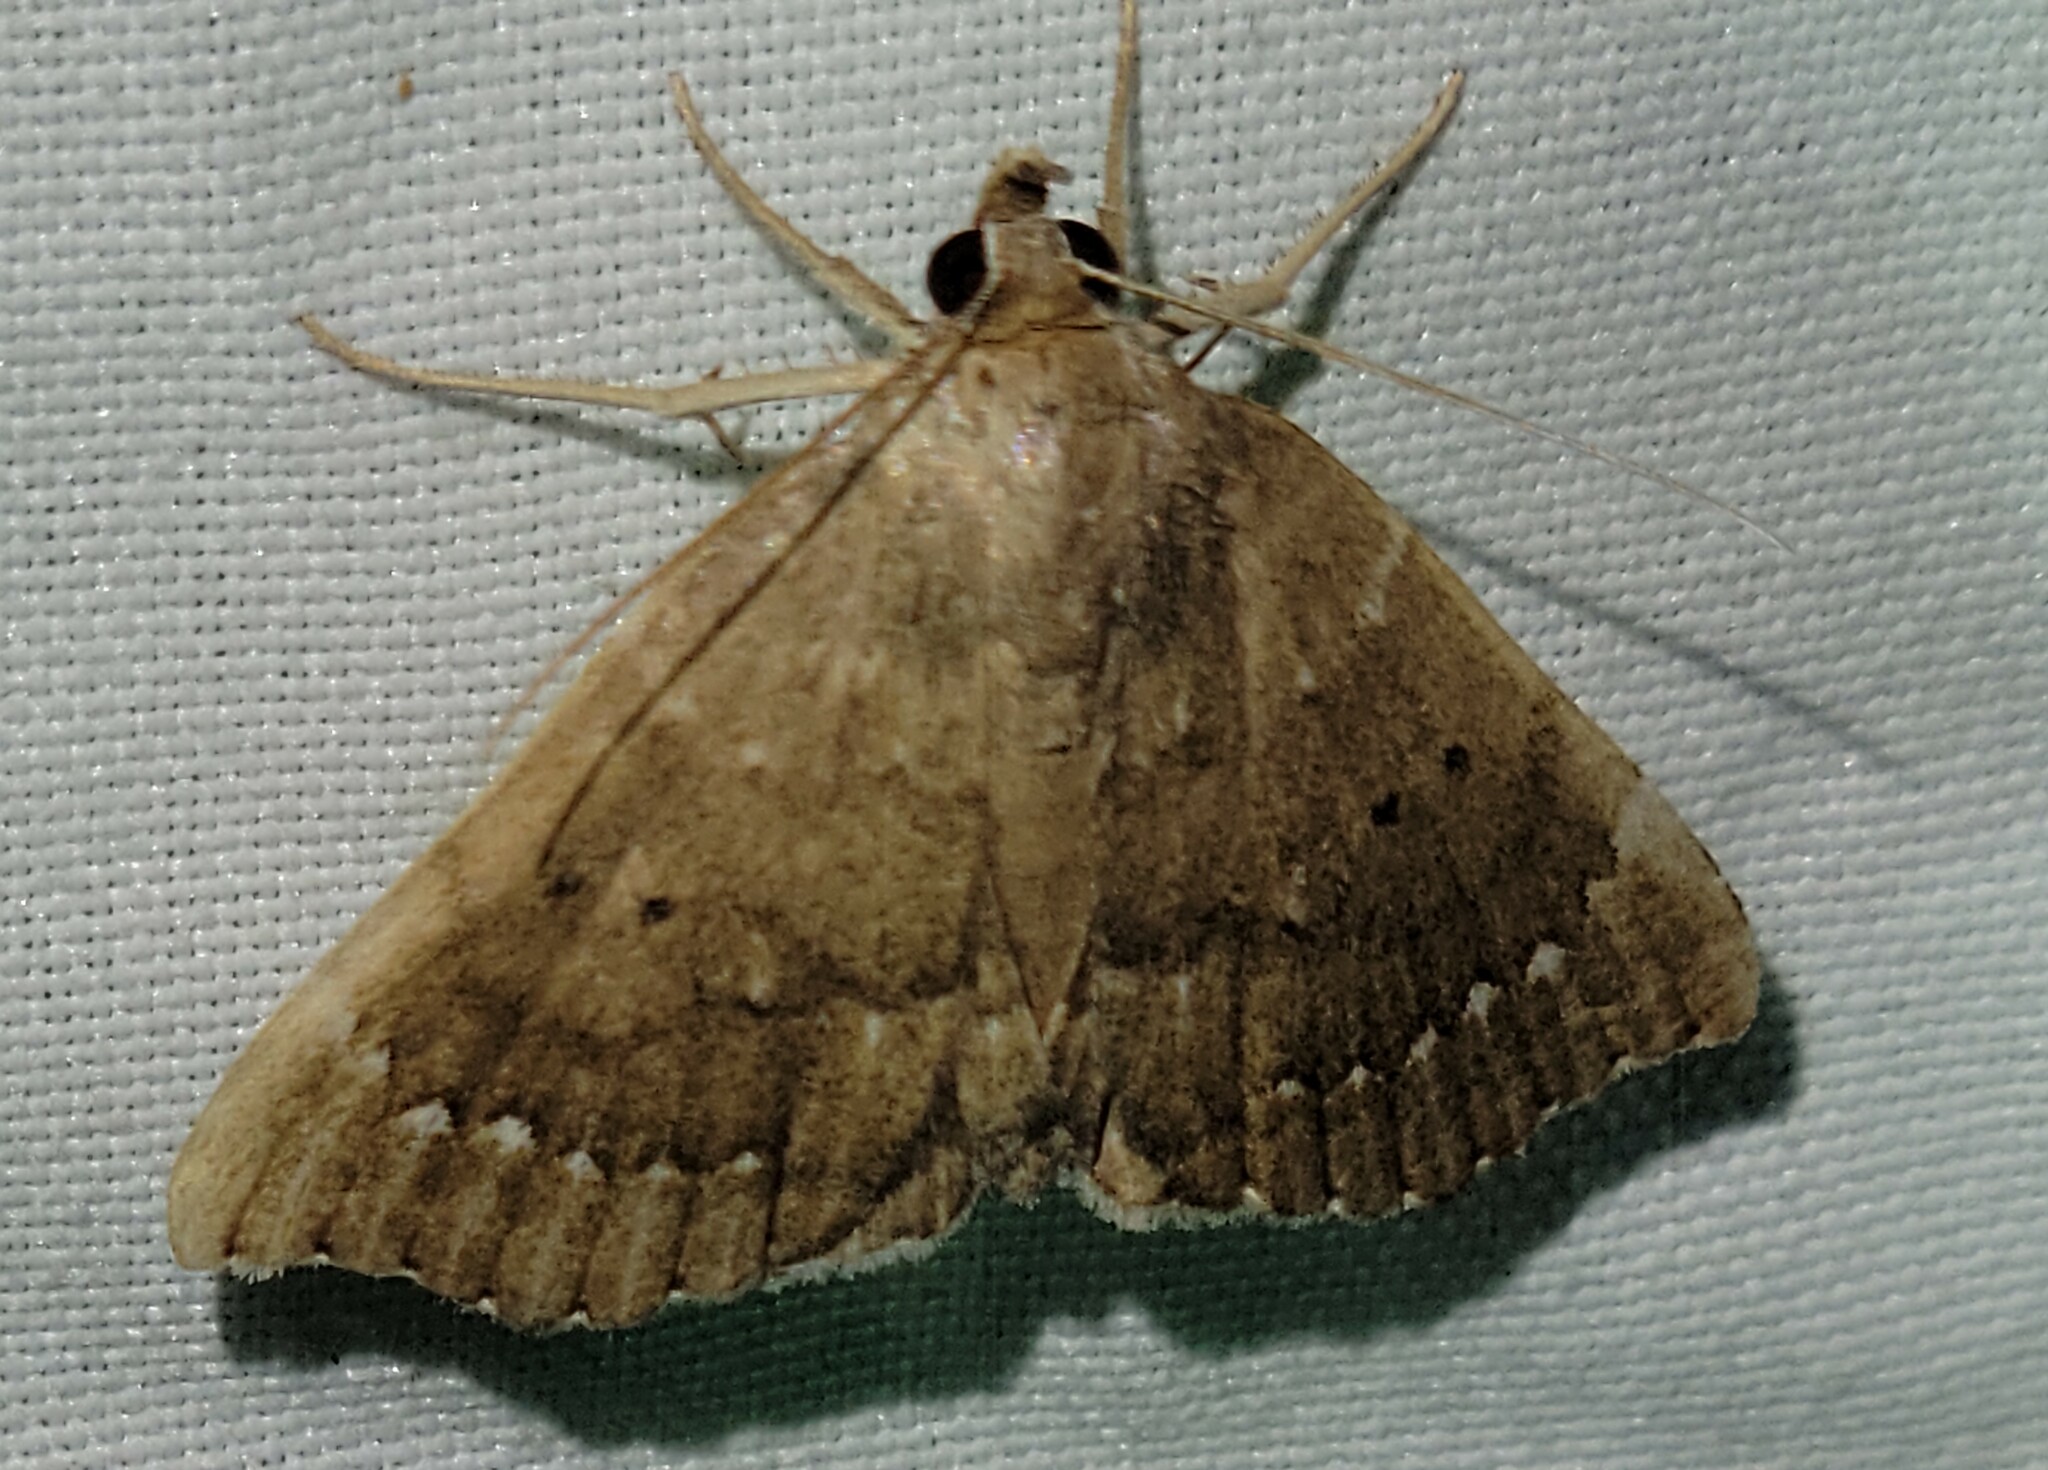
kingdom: Animalia
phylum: Arthropoda
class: Insecta
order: Lepidoptera
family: Erebidae
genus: Focillidia
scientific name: Focillidia texana
